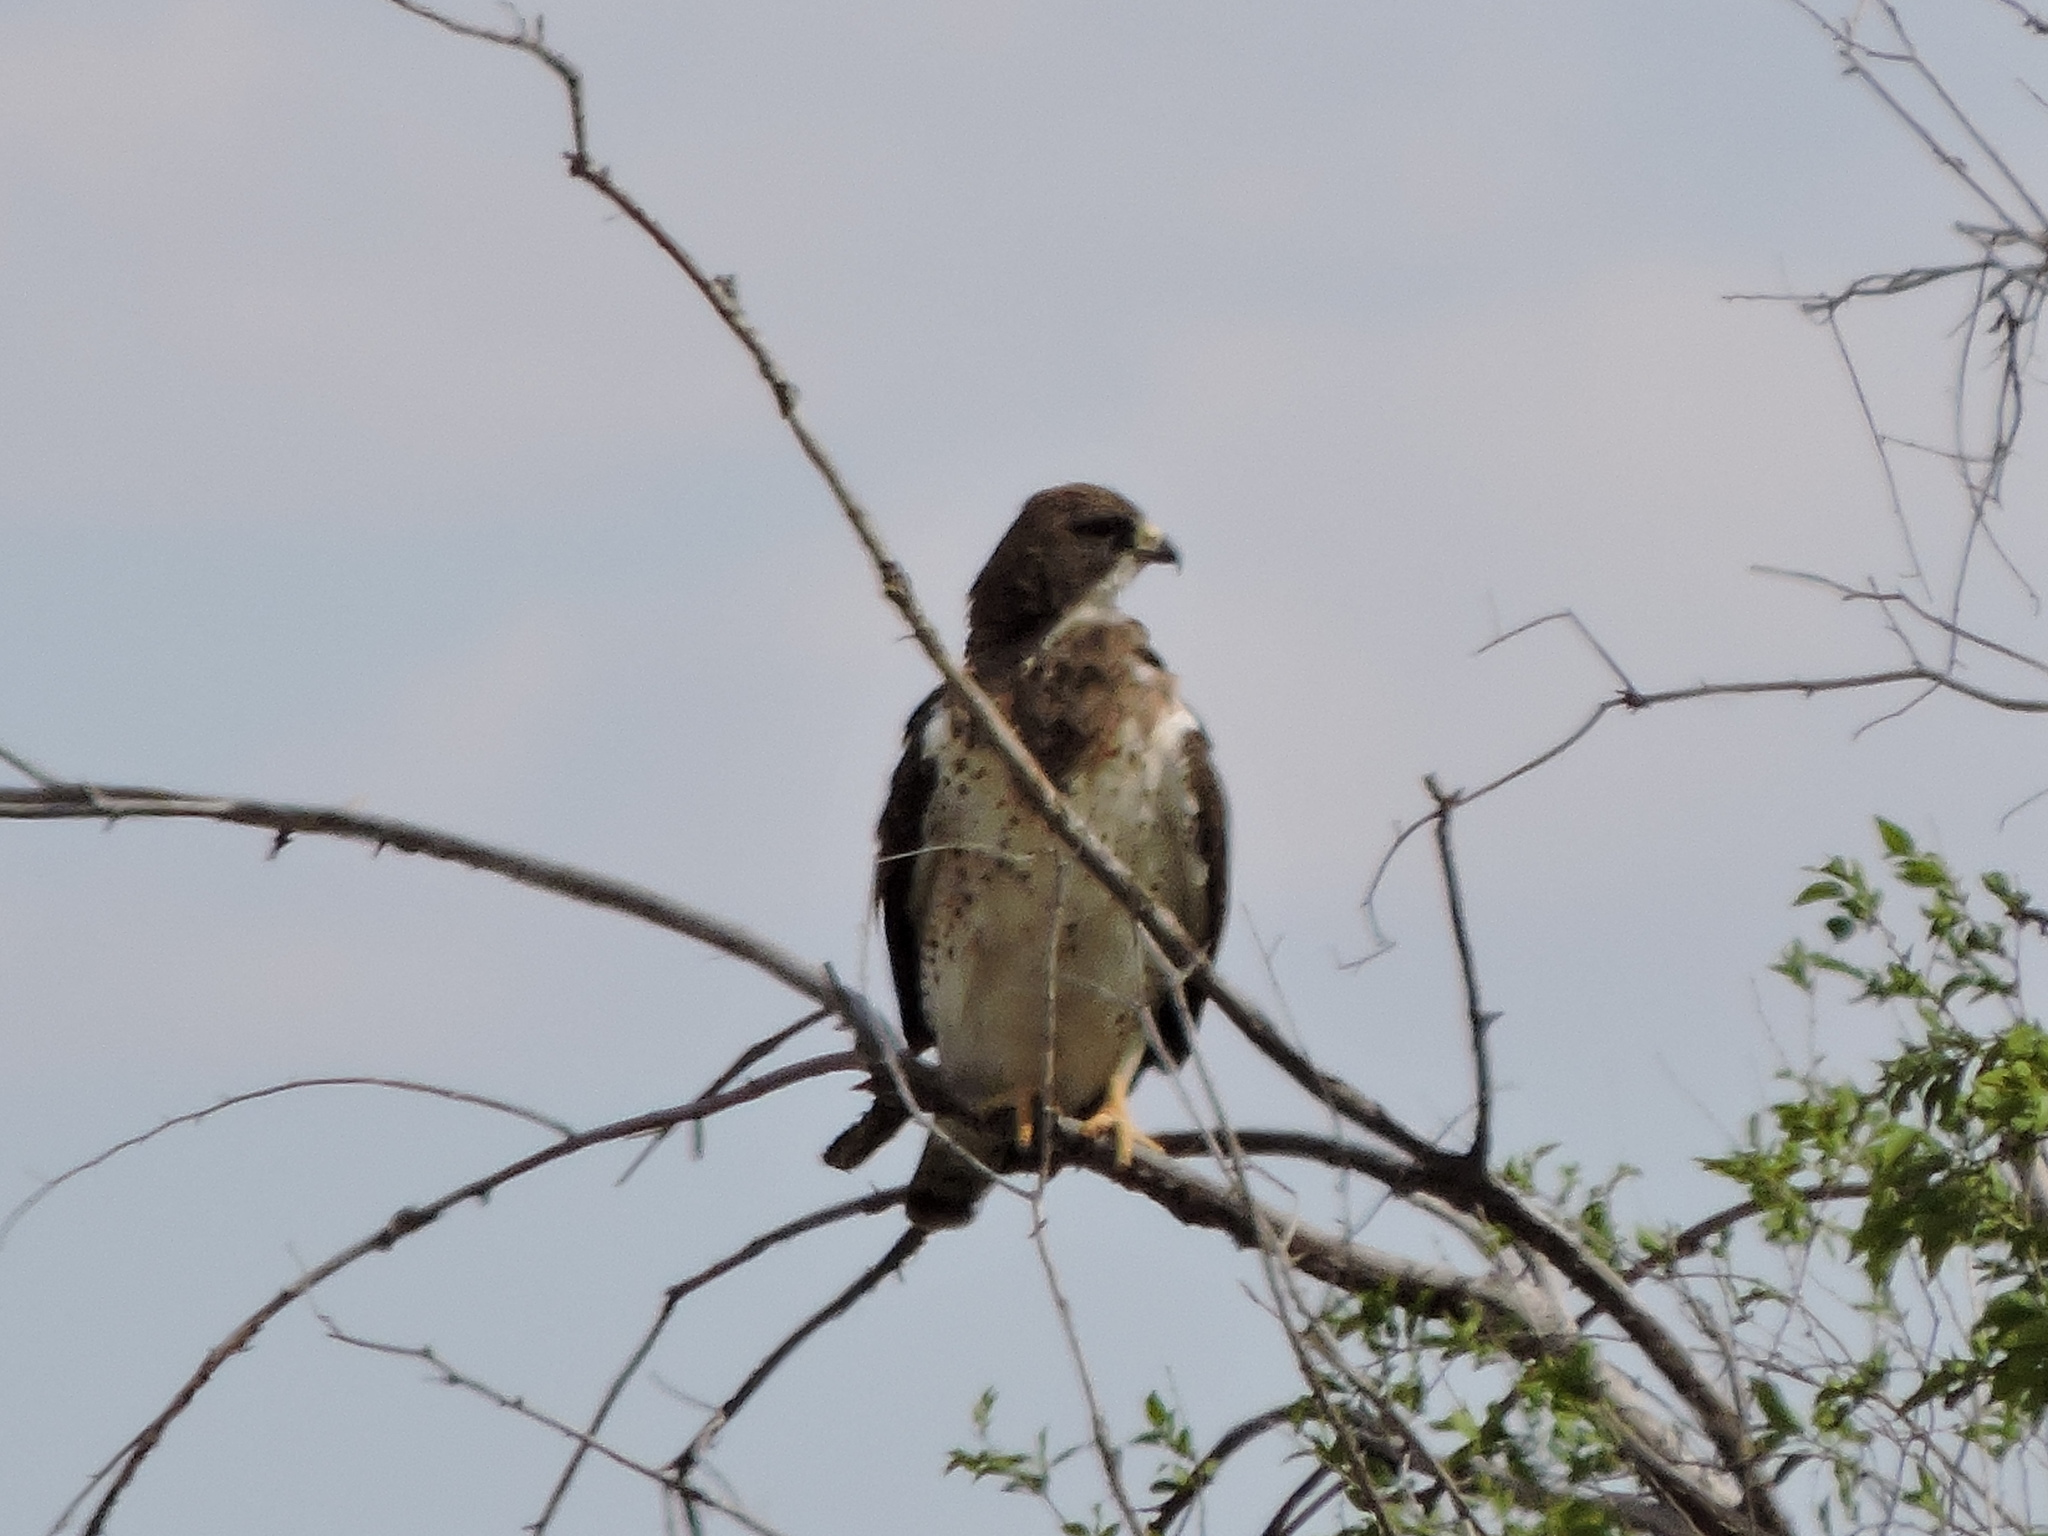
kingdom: Animalia
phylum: Chordata
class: Aves
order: Accipitriformes
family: Accipitridae
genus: Buteo
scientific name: Buteo swainsoni
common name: Swainson's hawk
